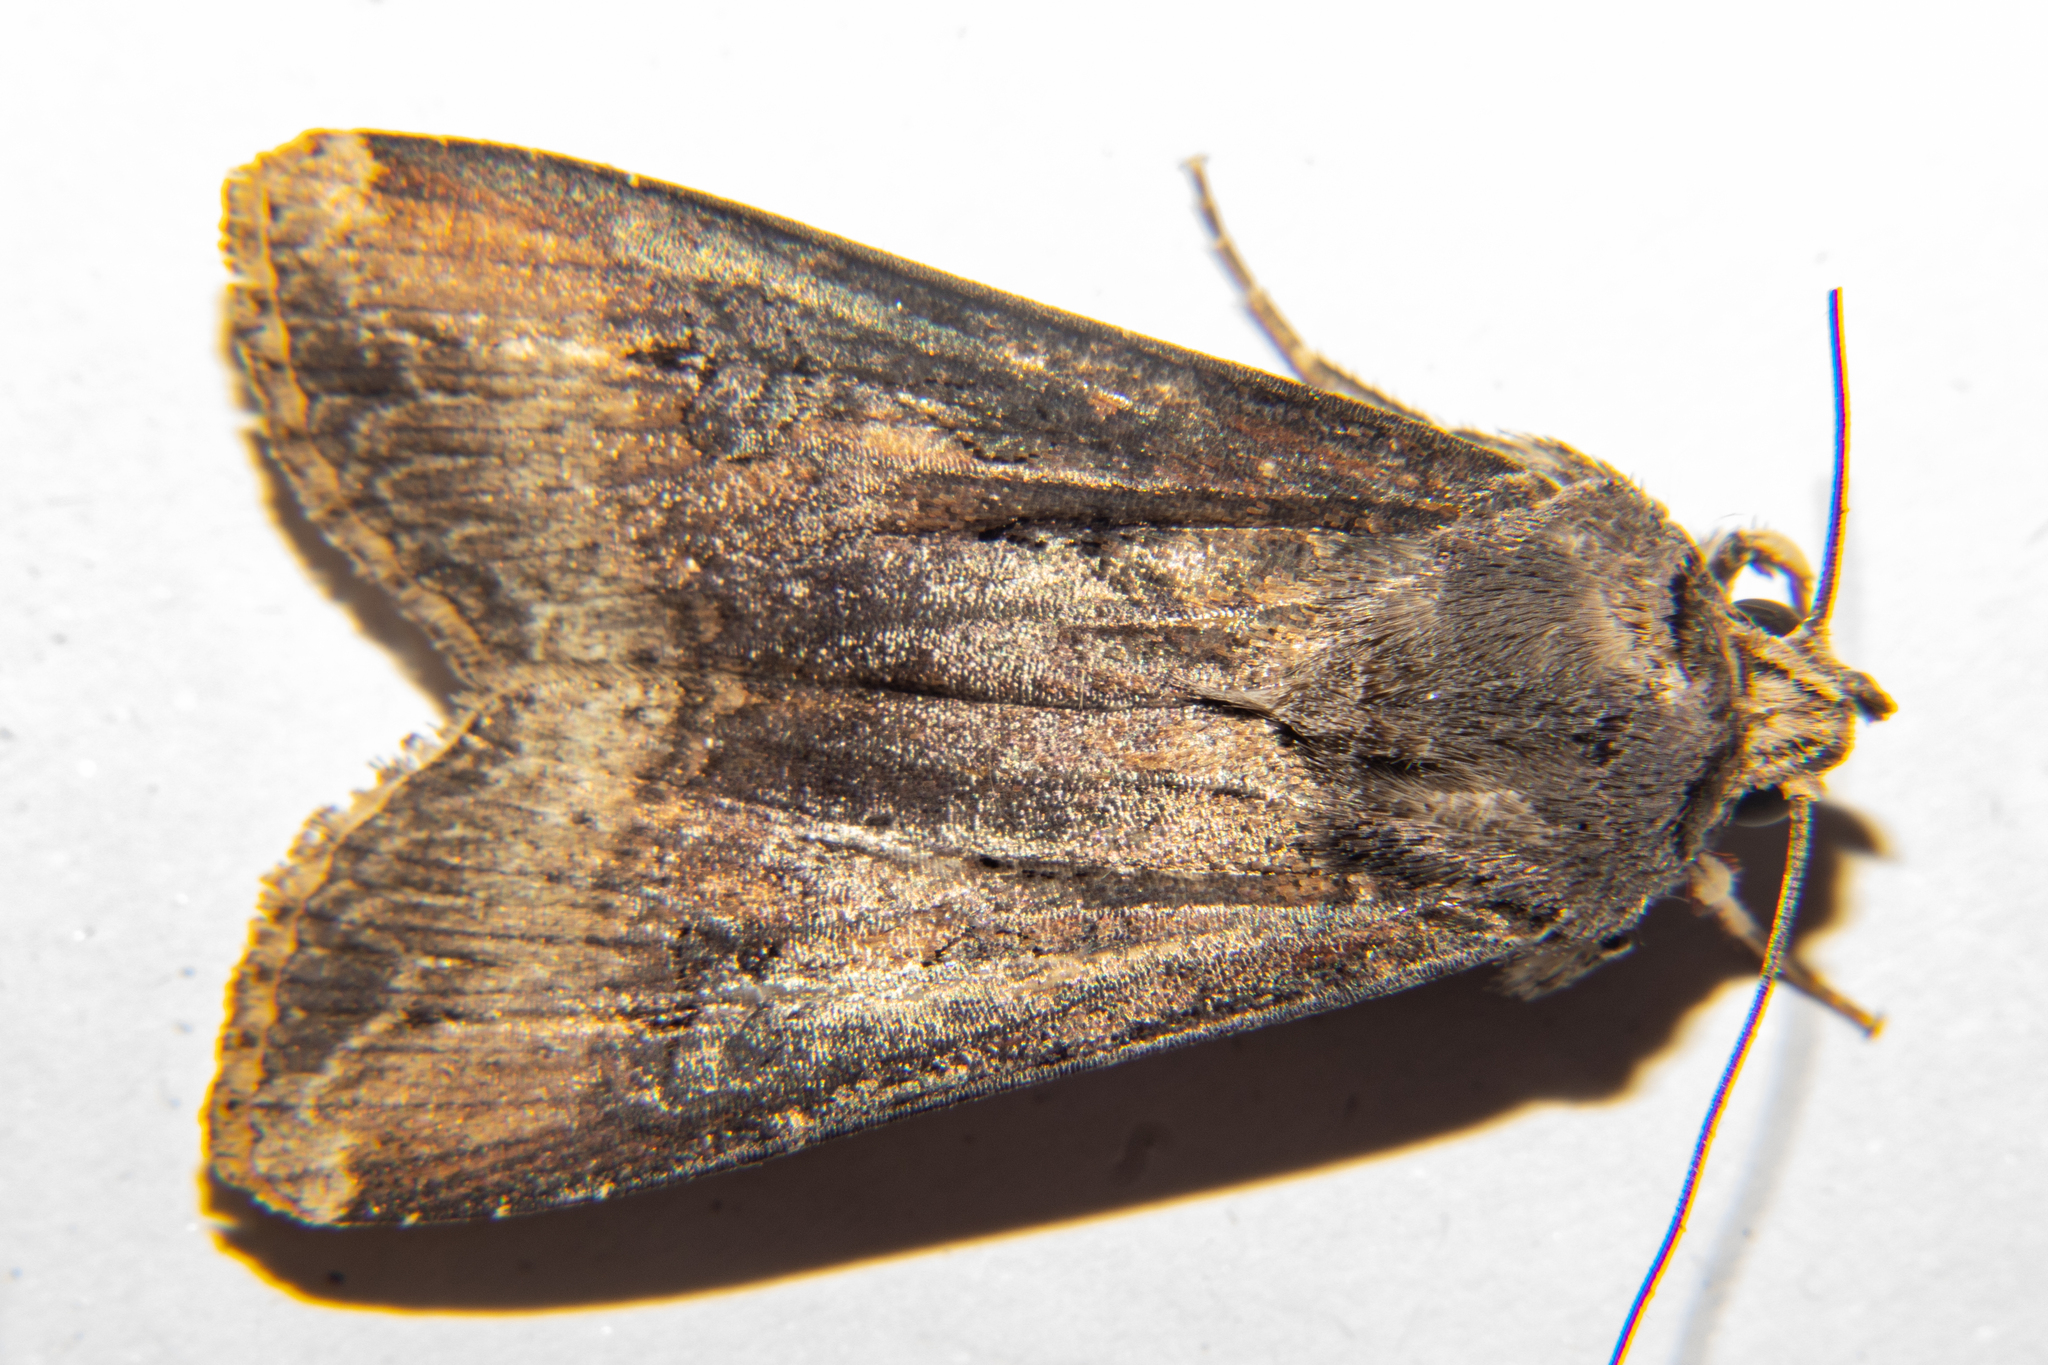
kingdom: Animalia
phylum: Arthropoda
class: Insecta
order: Lepidoptera
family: Noctuidae
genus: Agrotis
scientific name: Agrotis ipsilon
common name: Dark sword-grass
